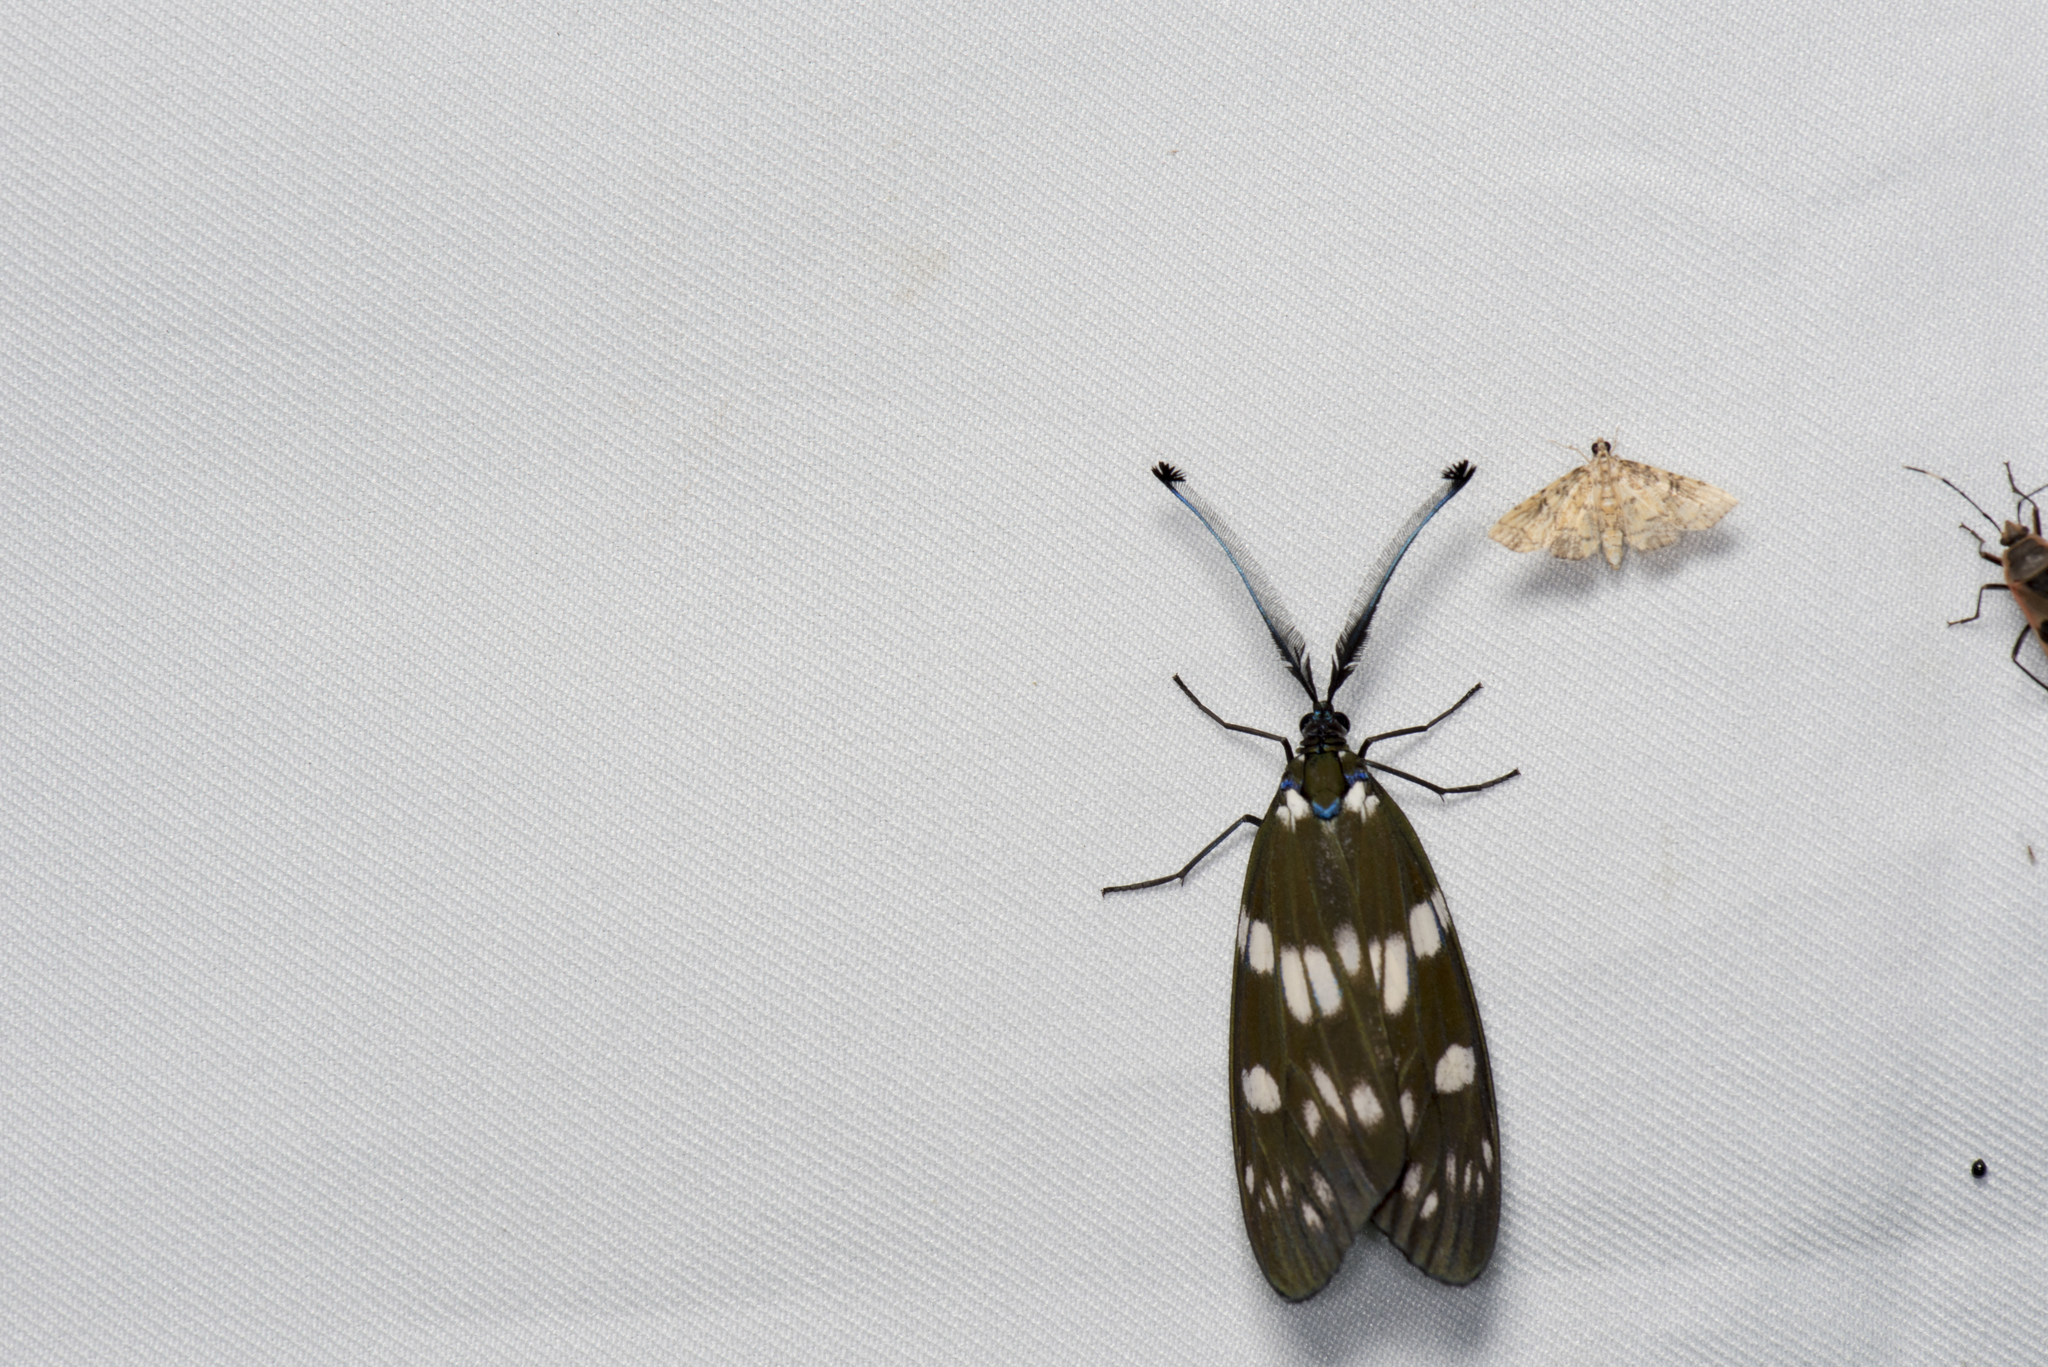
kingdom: Animalia
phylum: Arthropoda
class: Insecta
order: Lepidoptera
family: Zygaenidae
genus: Eterusia
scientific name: Eterusia aedea
